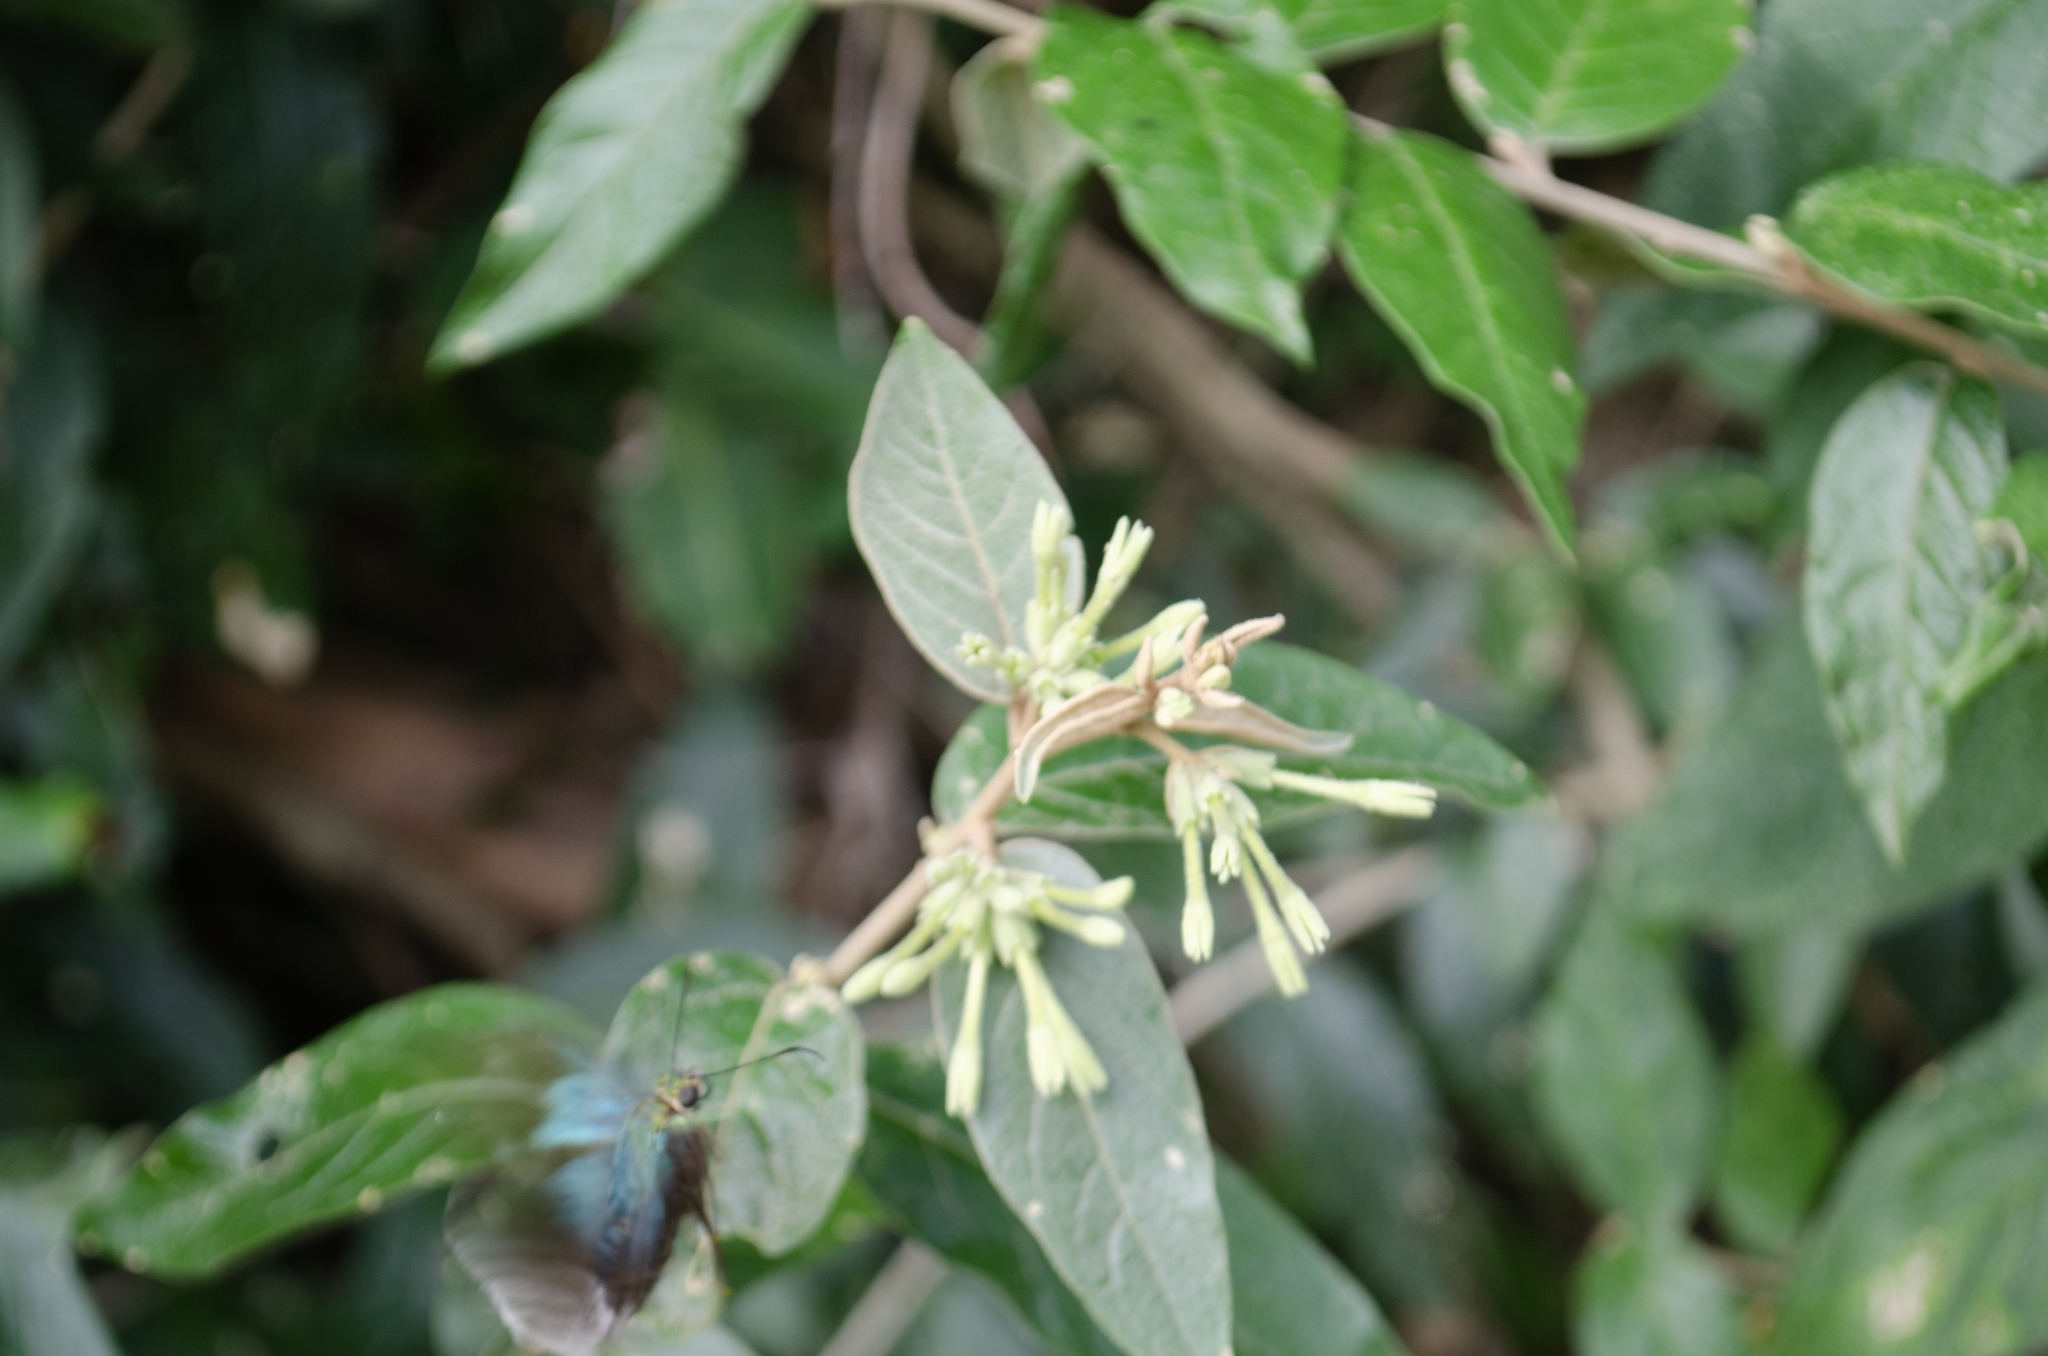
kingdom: Plantae
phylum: Tracheophyta
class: Magnoliopsida
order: Solanales
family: Solanaceae
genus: Cestrum
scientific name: Cestrum strigillatum
